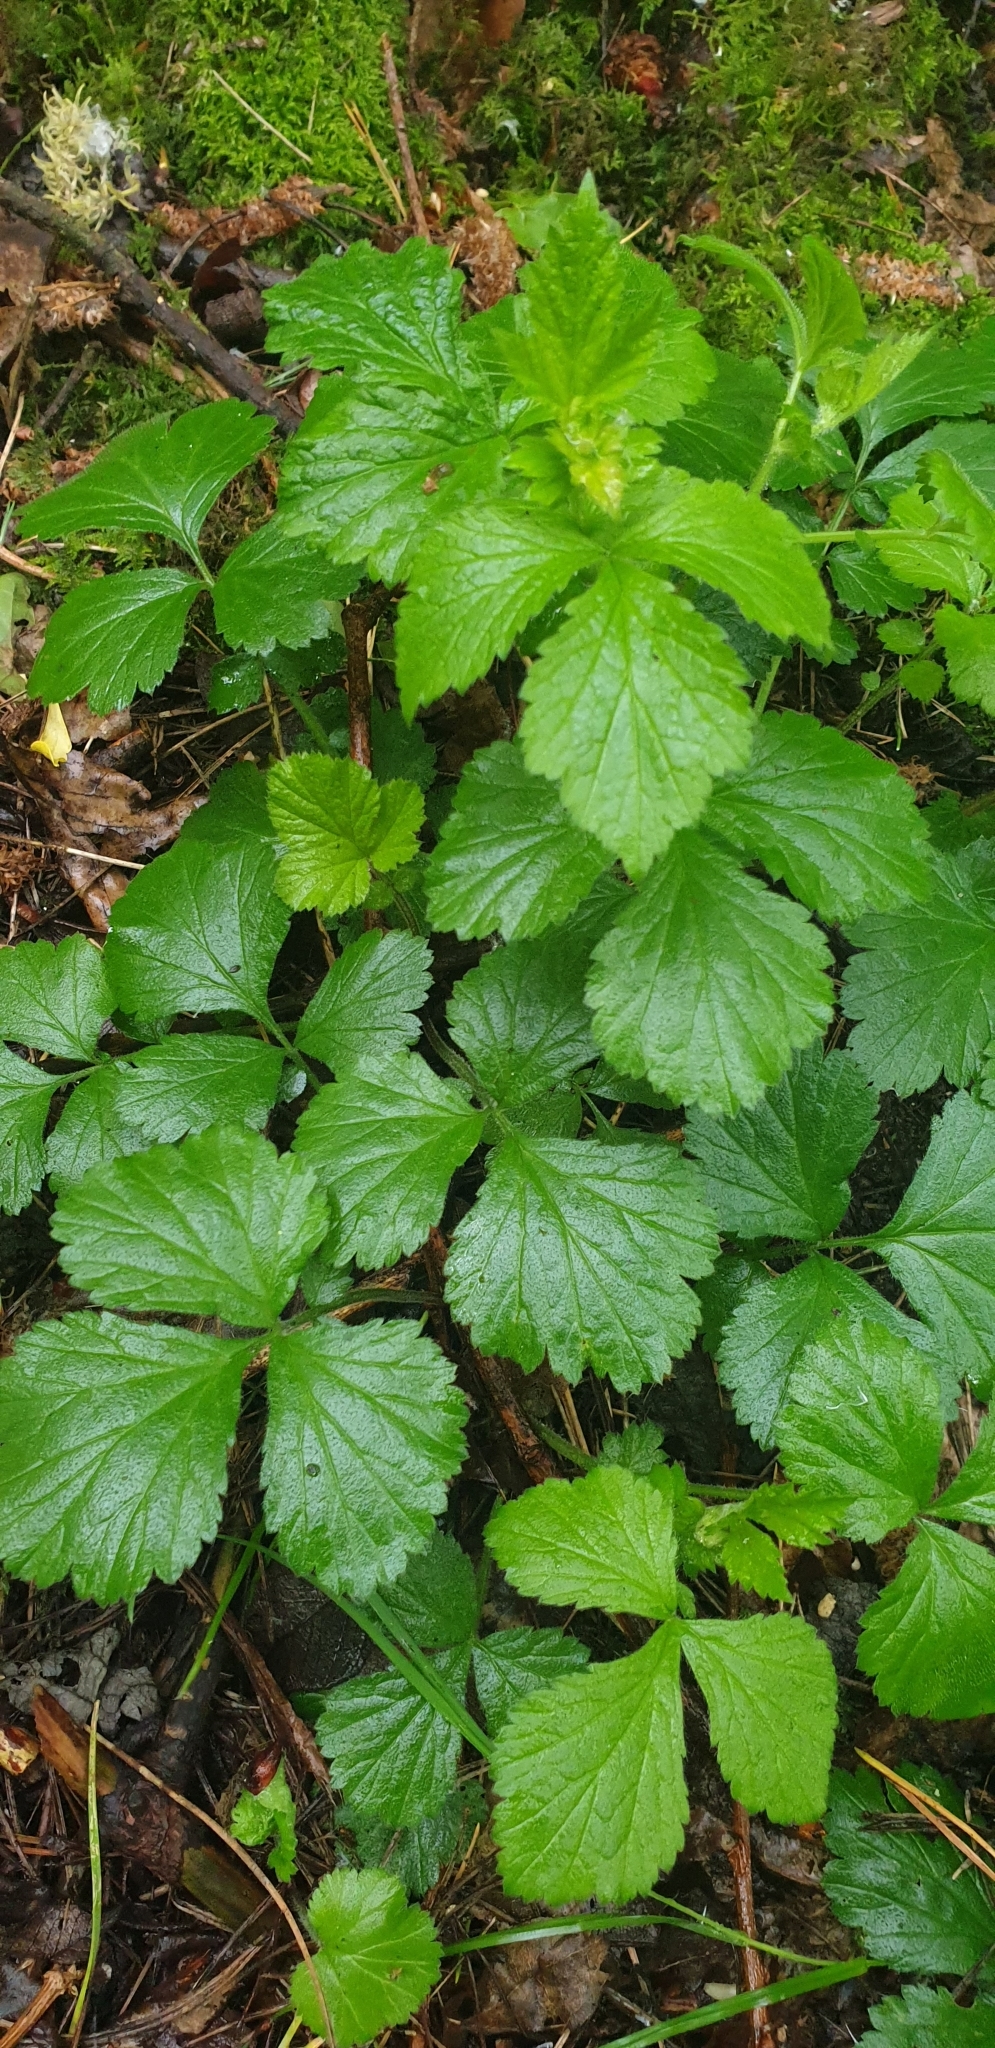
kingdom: Plantae
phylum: Tracheophyta
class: Magnoliopsida
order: Rosales
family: Rosaceae
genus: Geum
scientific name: Geum urbanum
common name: Wood avens
